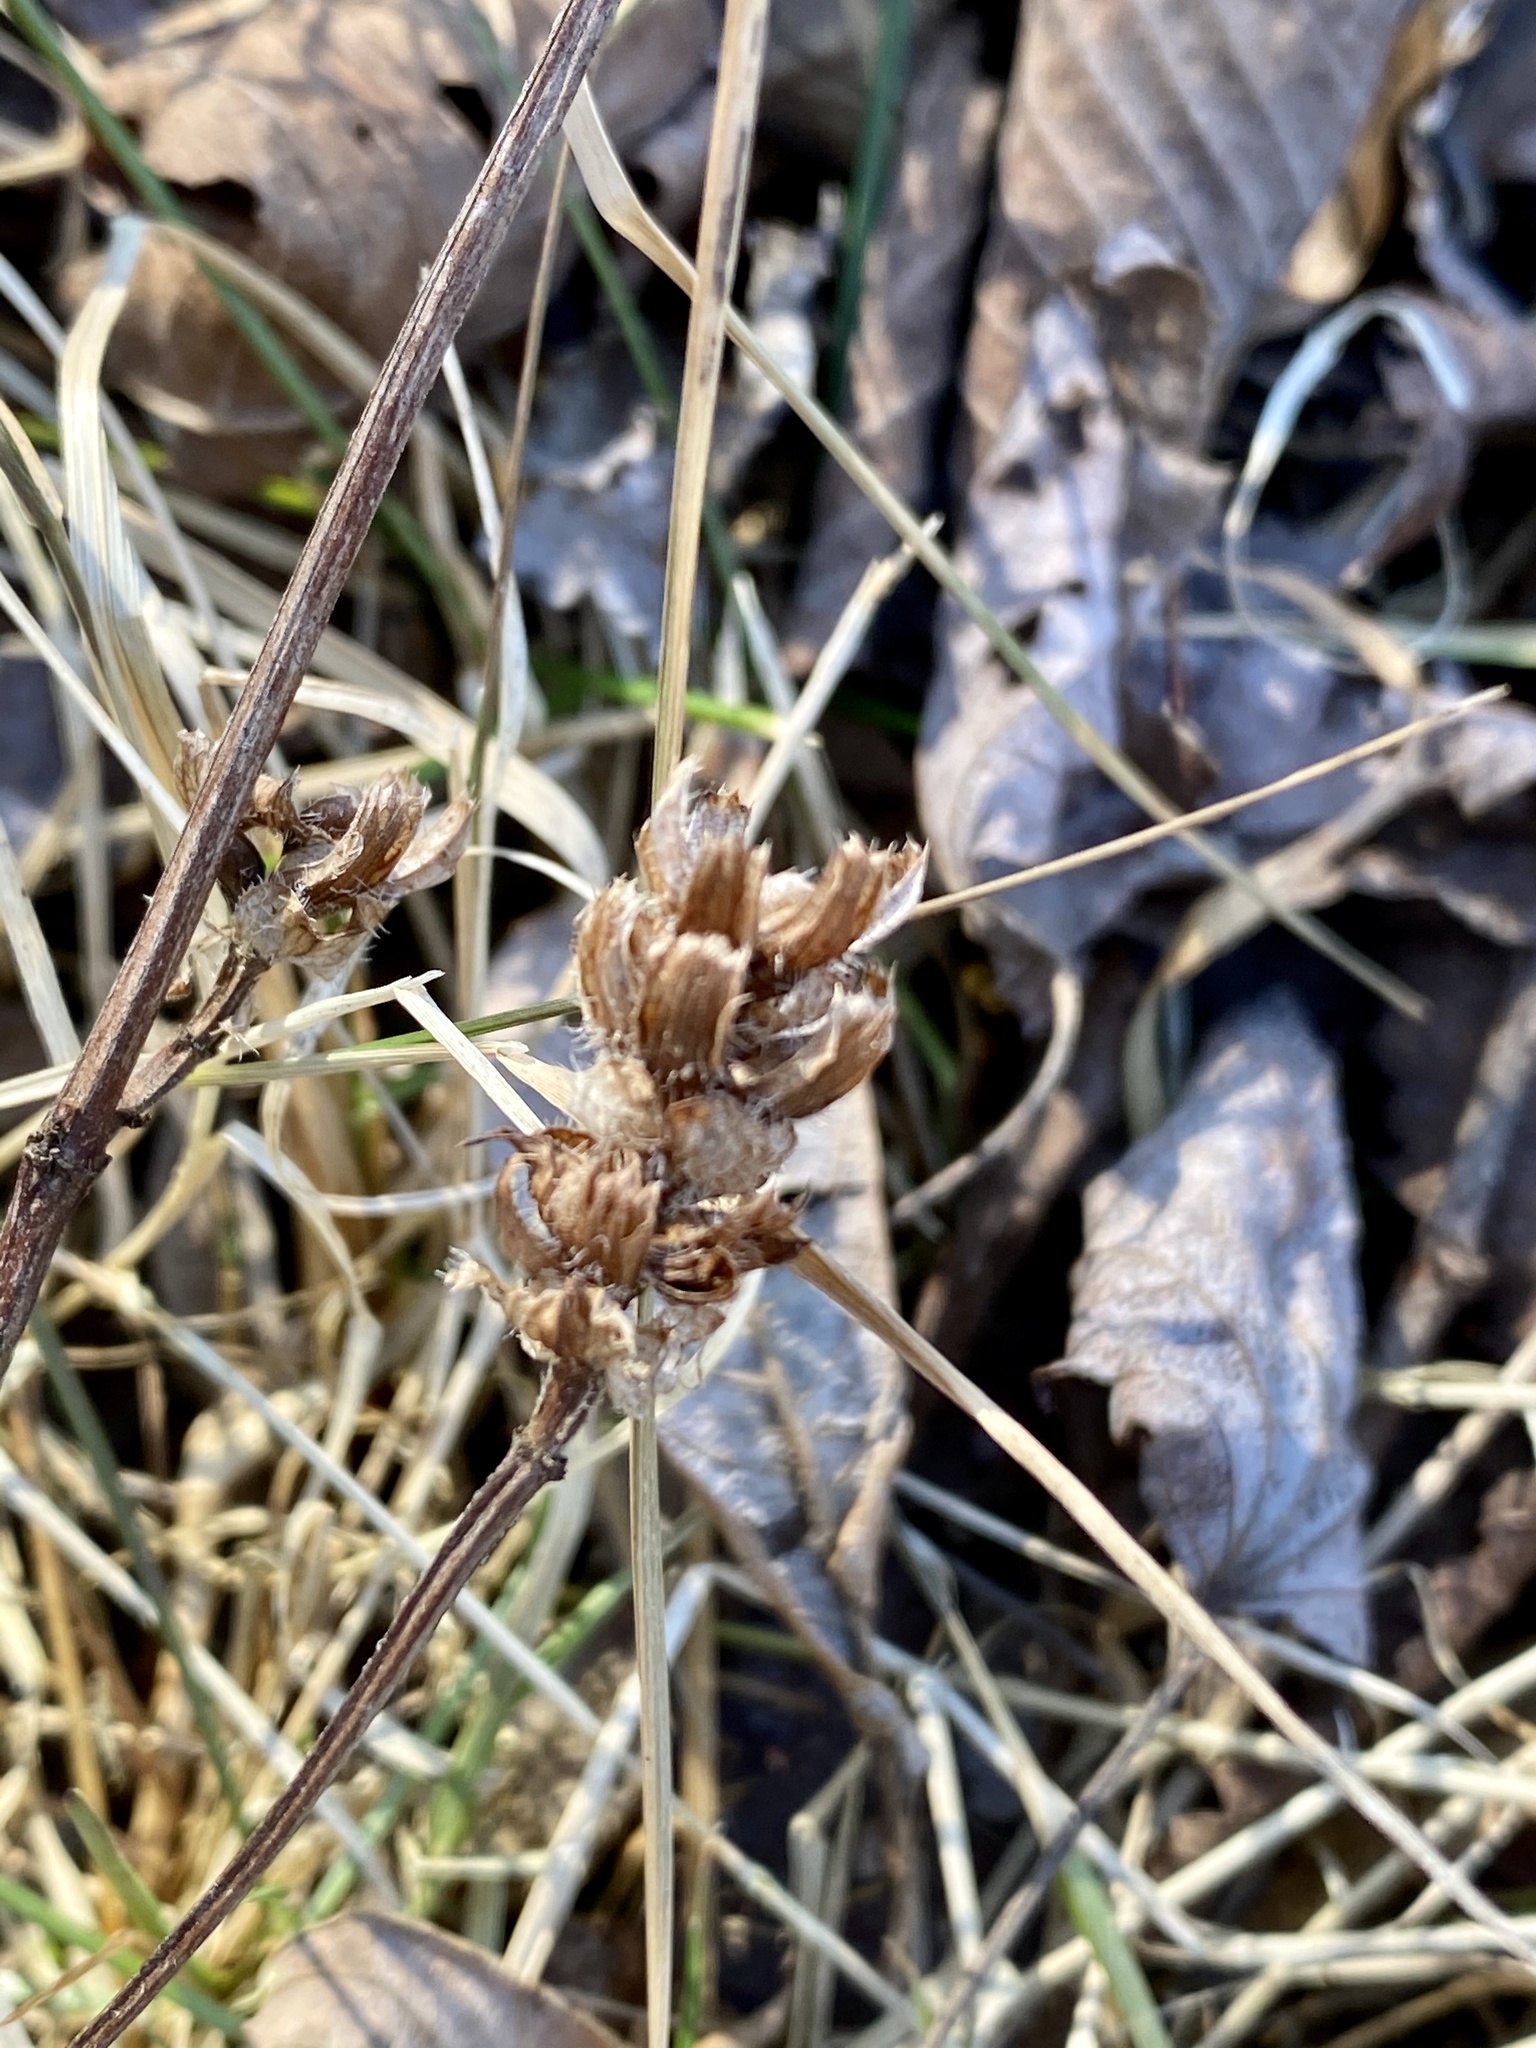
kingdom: Plantae
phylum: Tracheophyta
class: Magnoliopsida
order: Lamiales
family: Lamiaceae
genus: Prunella
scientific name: Prunella vulgaris
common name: Heal-all
